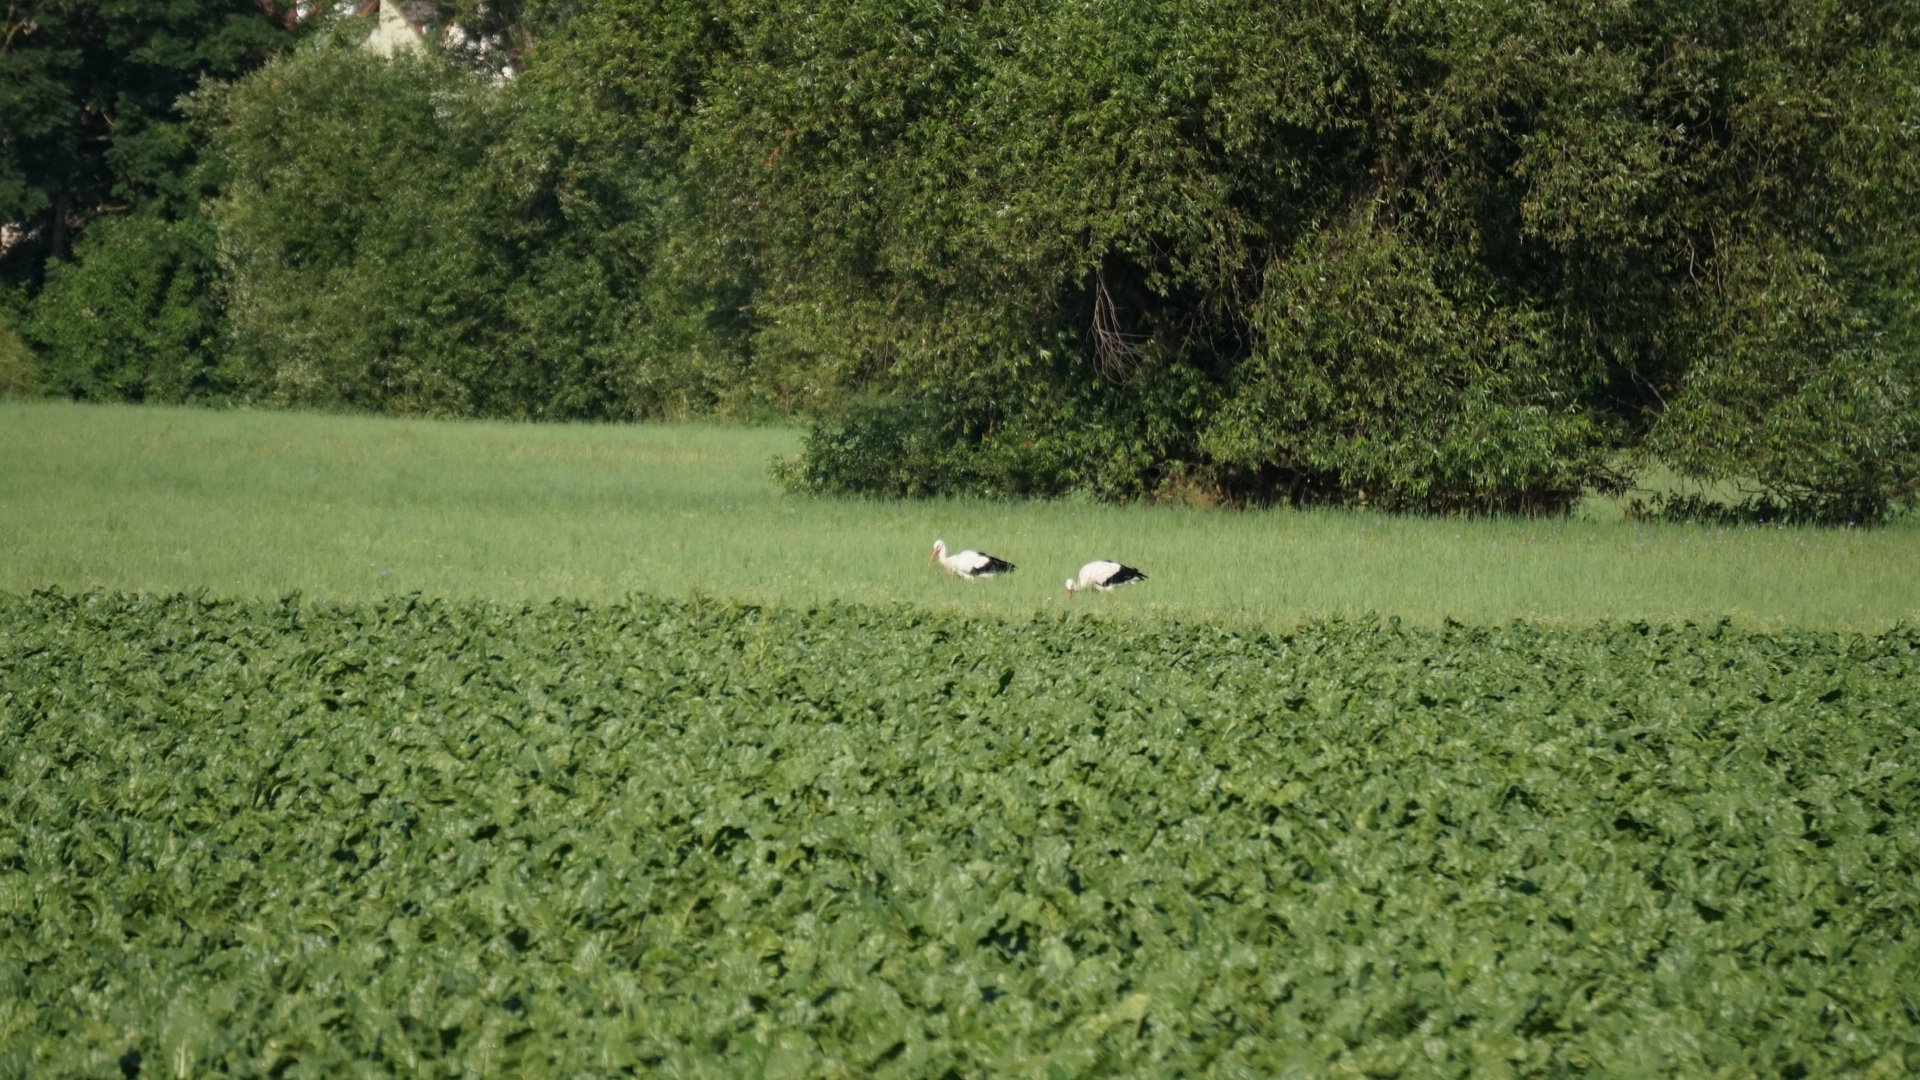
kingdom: Animalia
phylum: Chordata
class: Aves
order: Ciconiiformes
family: Ciconiidae
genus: Ciconia
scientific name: Ciconia ciconia
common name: White stork
